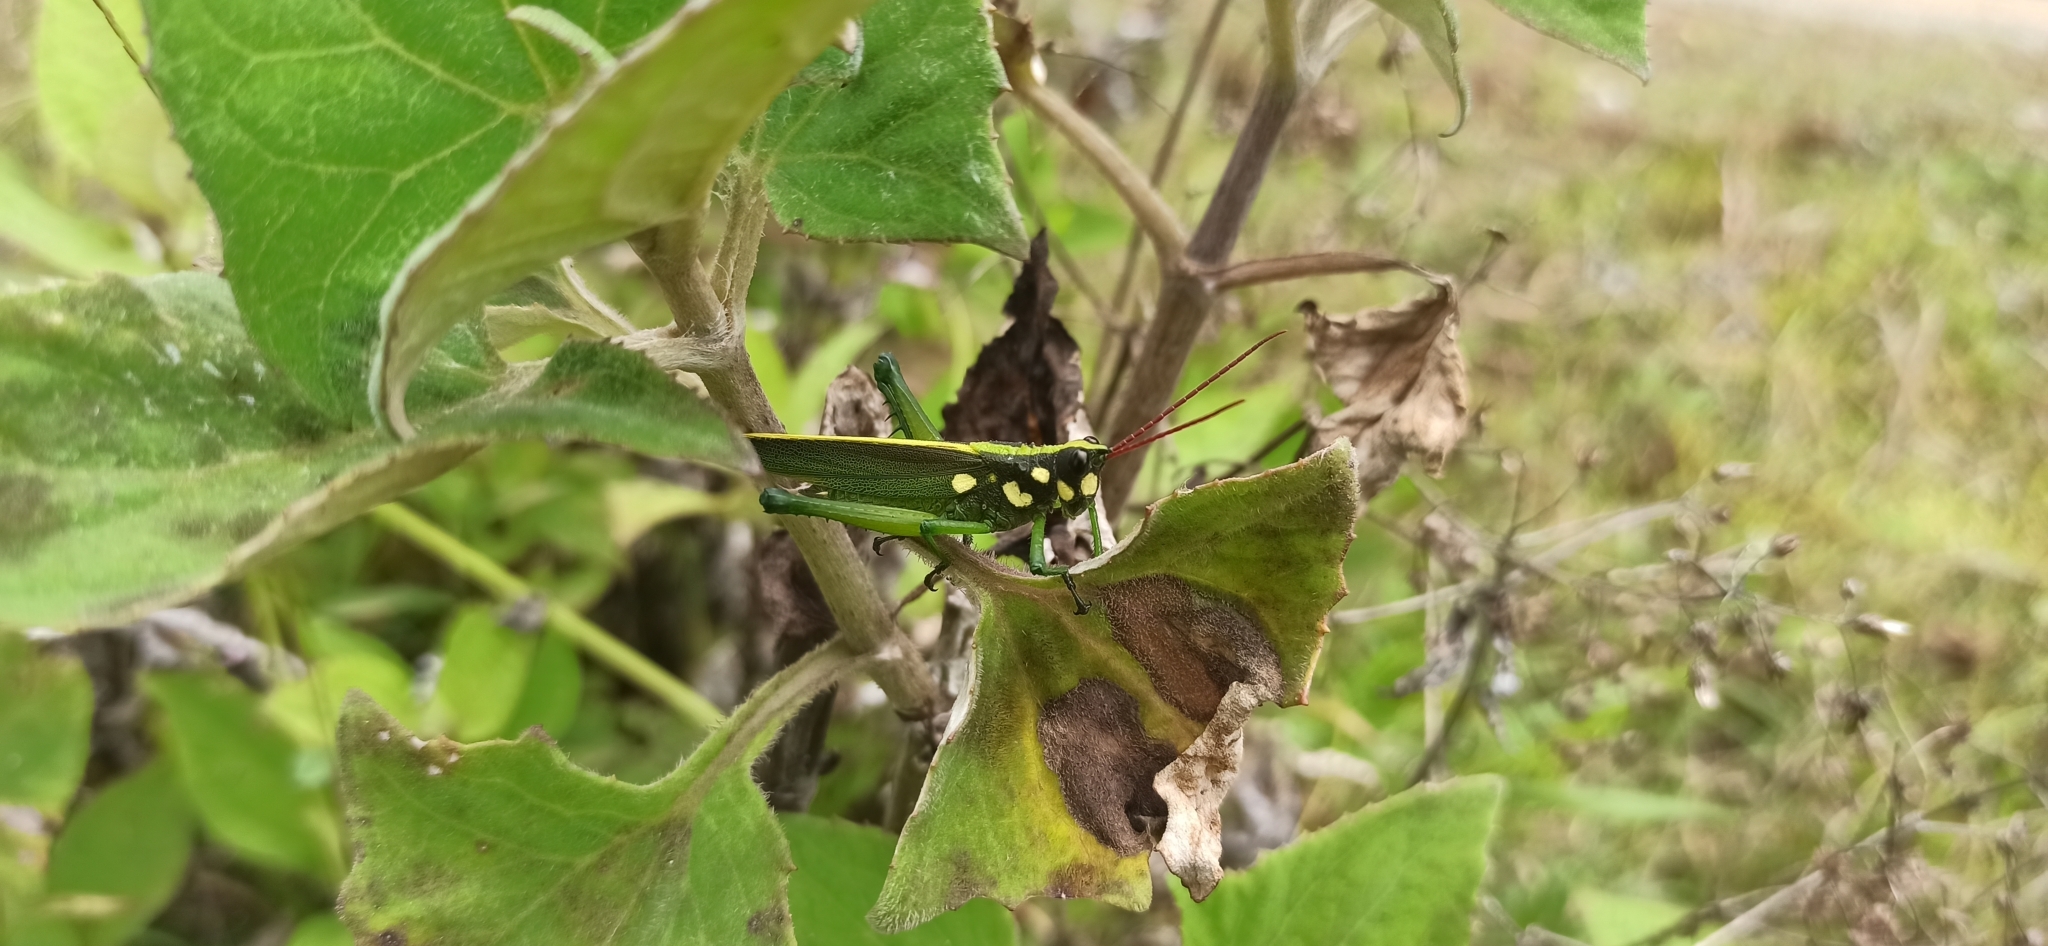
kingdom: Animalia
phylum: Arthropoda
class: Insecta
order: Orthoptera
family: Romaleidae
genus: Agriacris
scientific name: Agriacris magnifica
